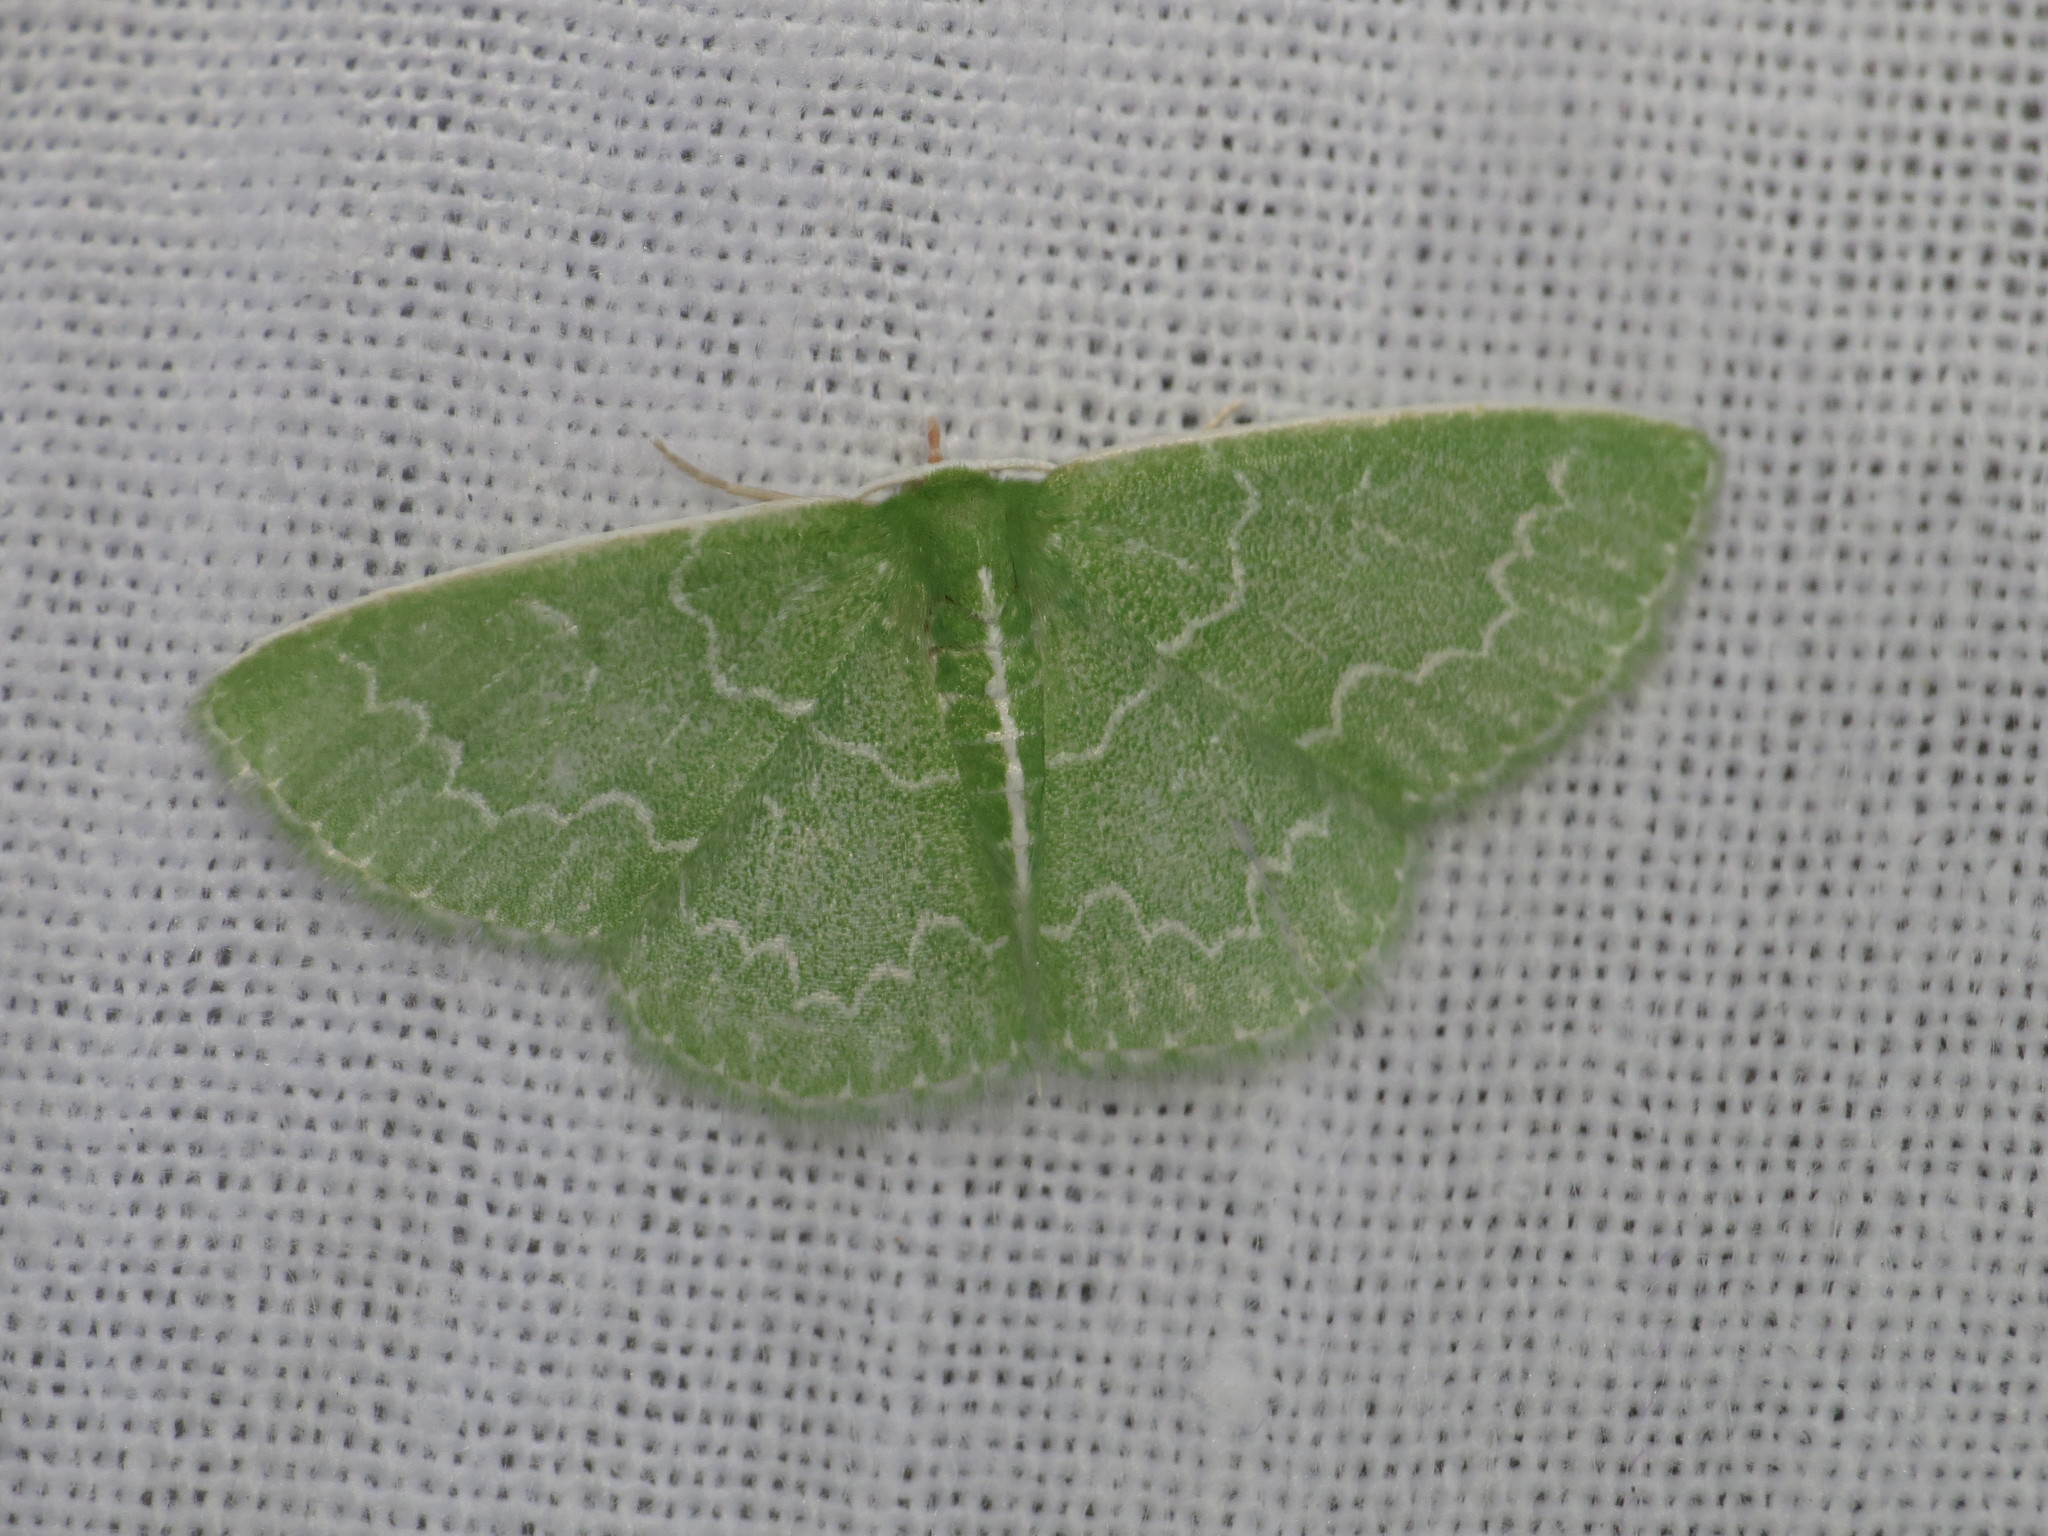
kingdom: Animalia
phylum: Arthropoda
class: Insecta
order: Lepidoptera
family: Geometridae
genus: Synchlora
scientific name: Synchlora frondaria
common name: Southern emerald
